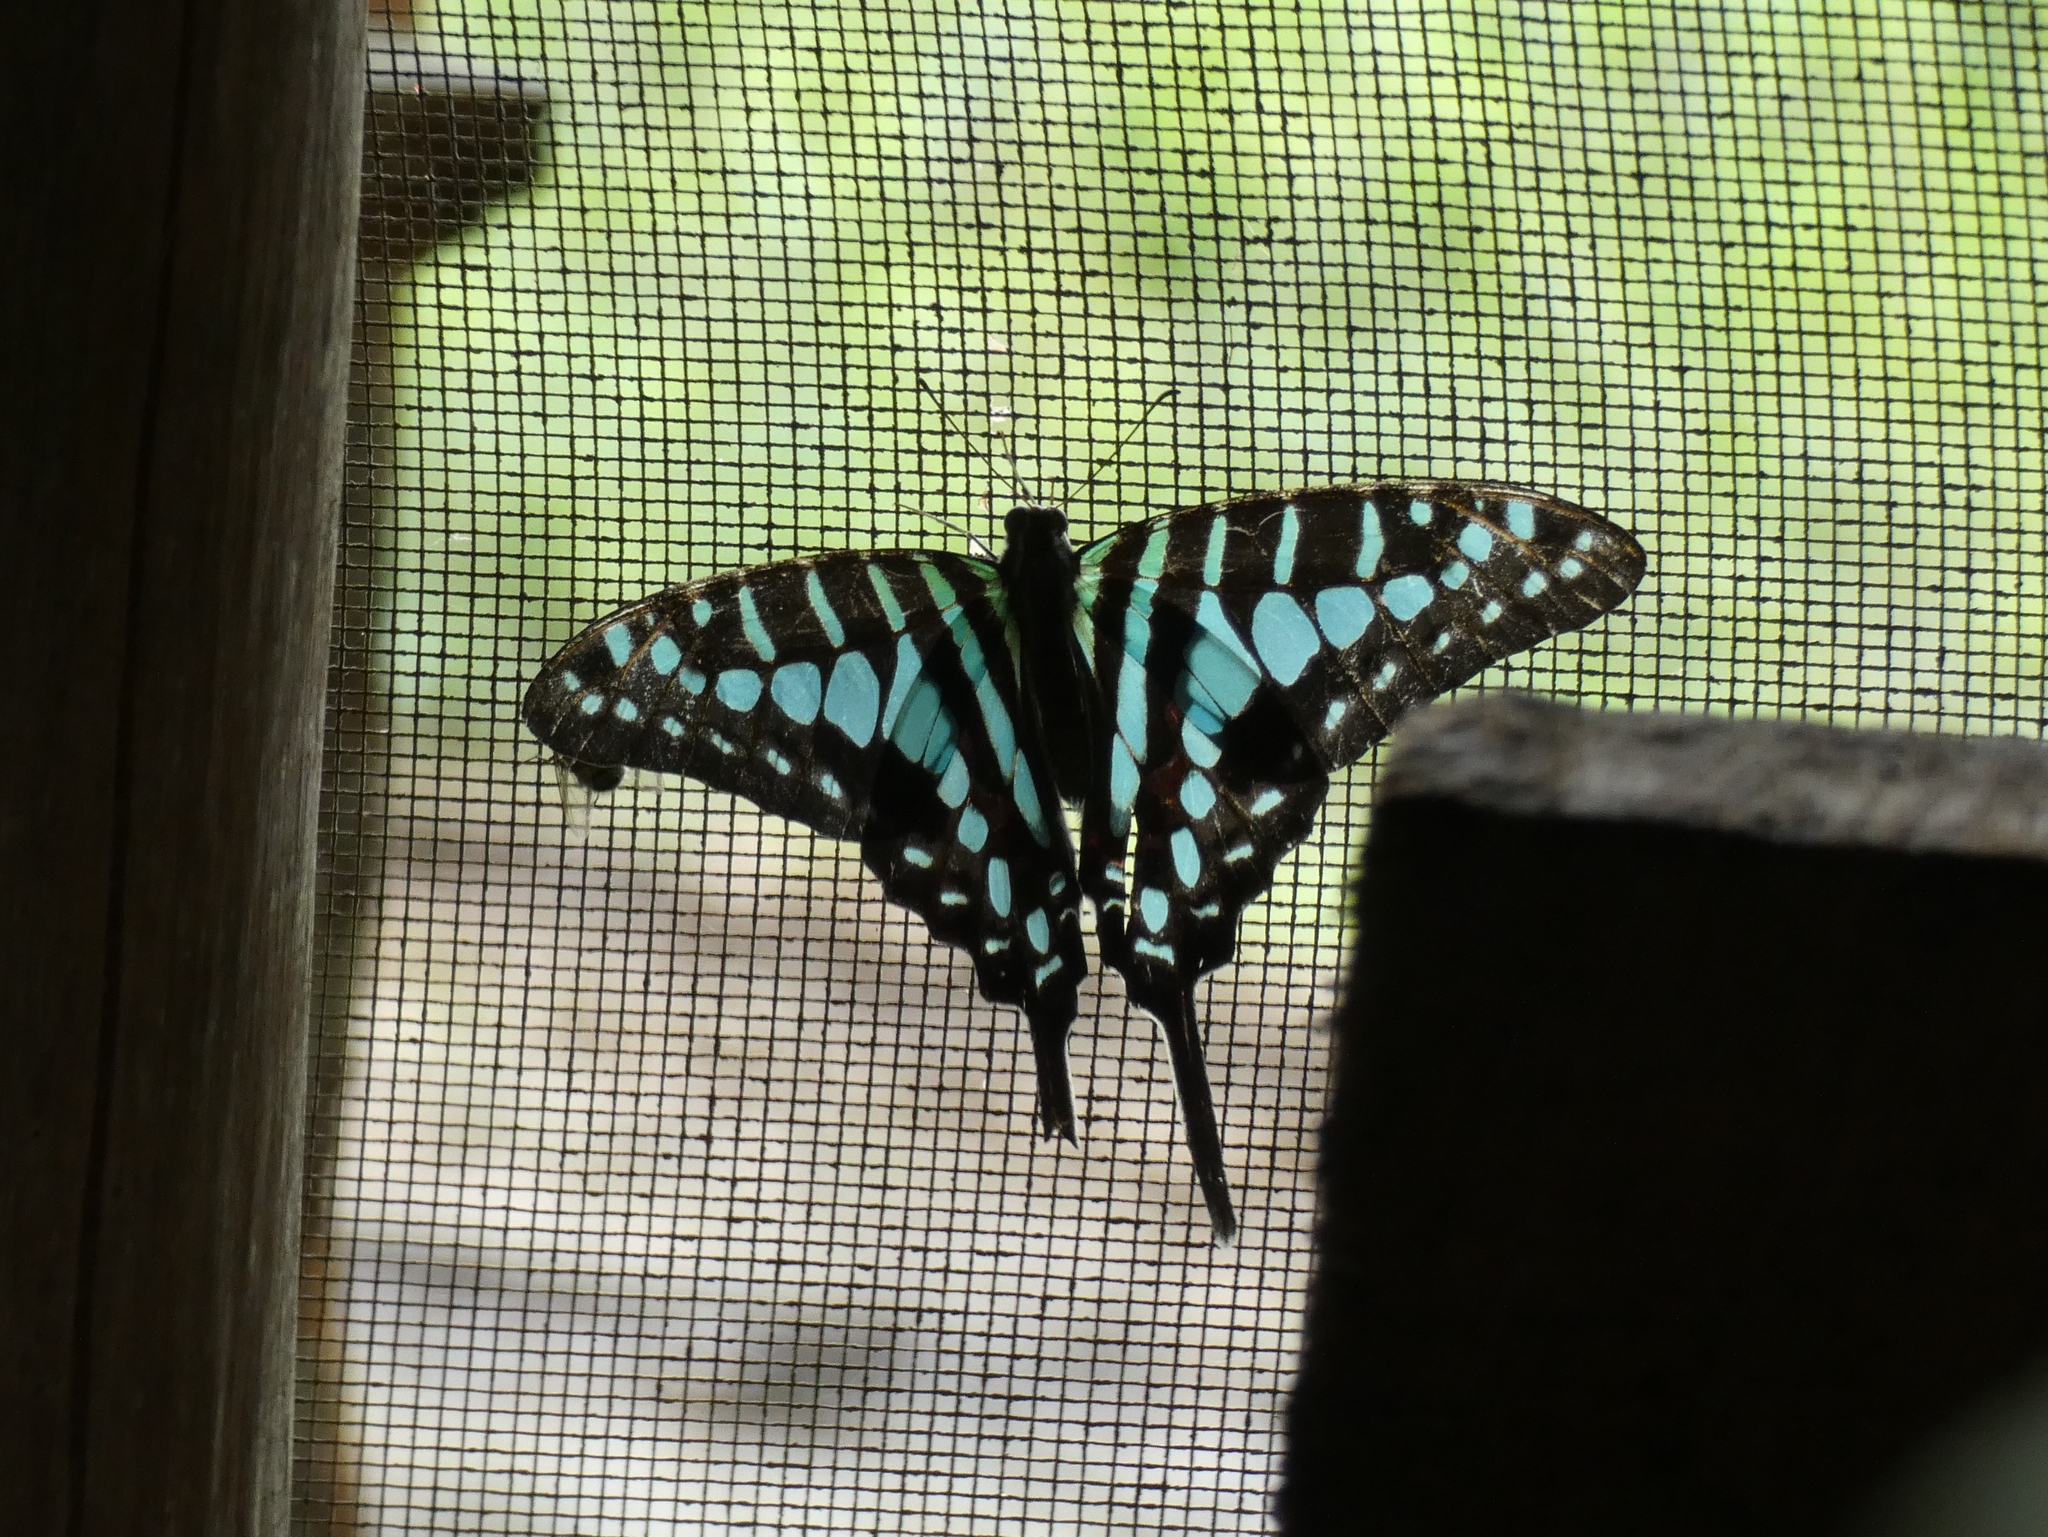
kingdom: Animalia
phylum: Arthropoda
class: Insecta
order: Lepidoptera
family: Papilionidae
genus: Graphium
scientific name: Graphium policenes
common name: Common swordtail
